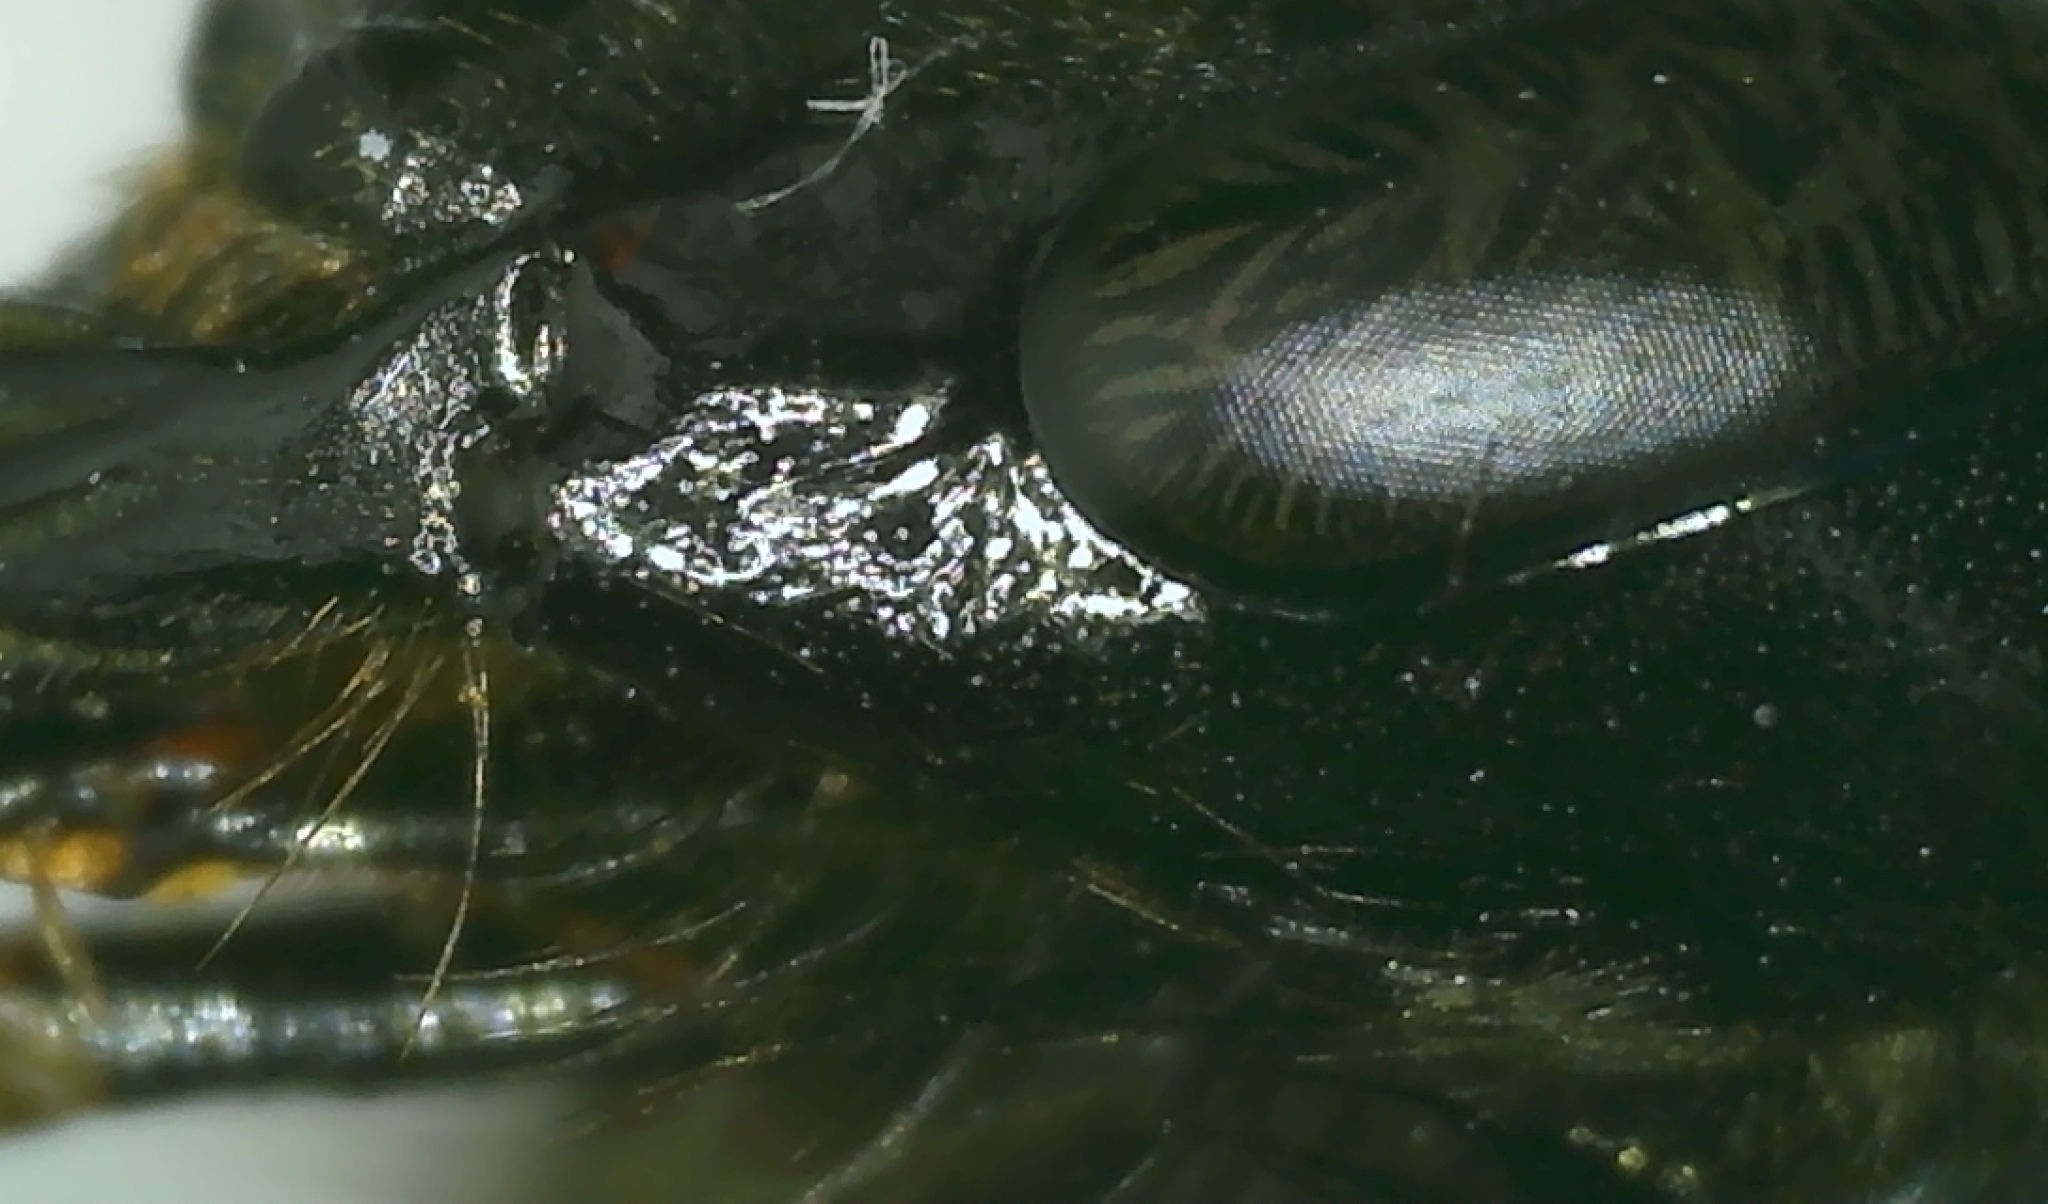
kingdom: Animalia
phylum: Arthropoda
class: Insecta
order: Hymenoptera
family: Apidae
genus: Bombus
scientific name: Bombus subterraneus
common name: Short-haired humble-bee
